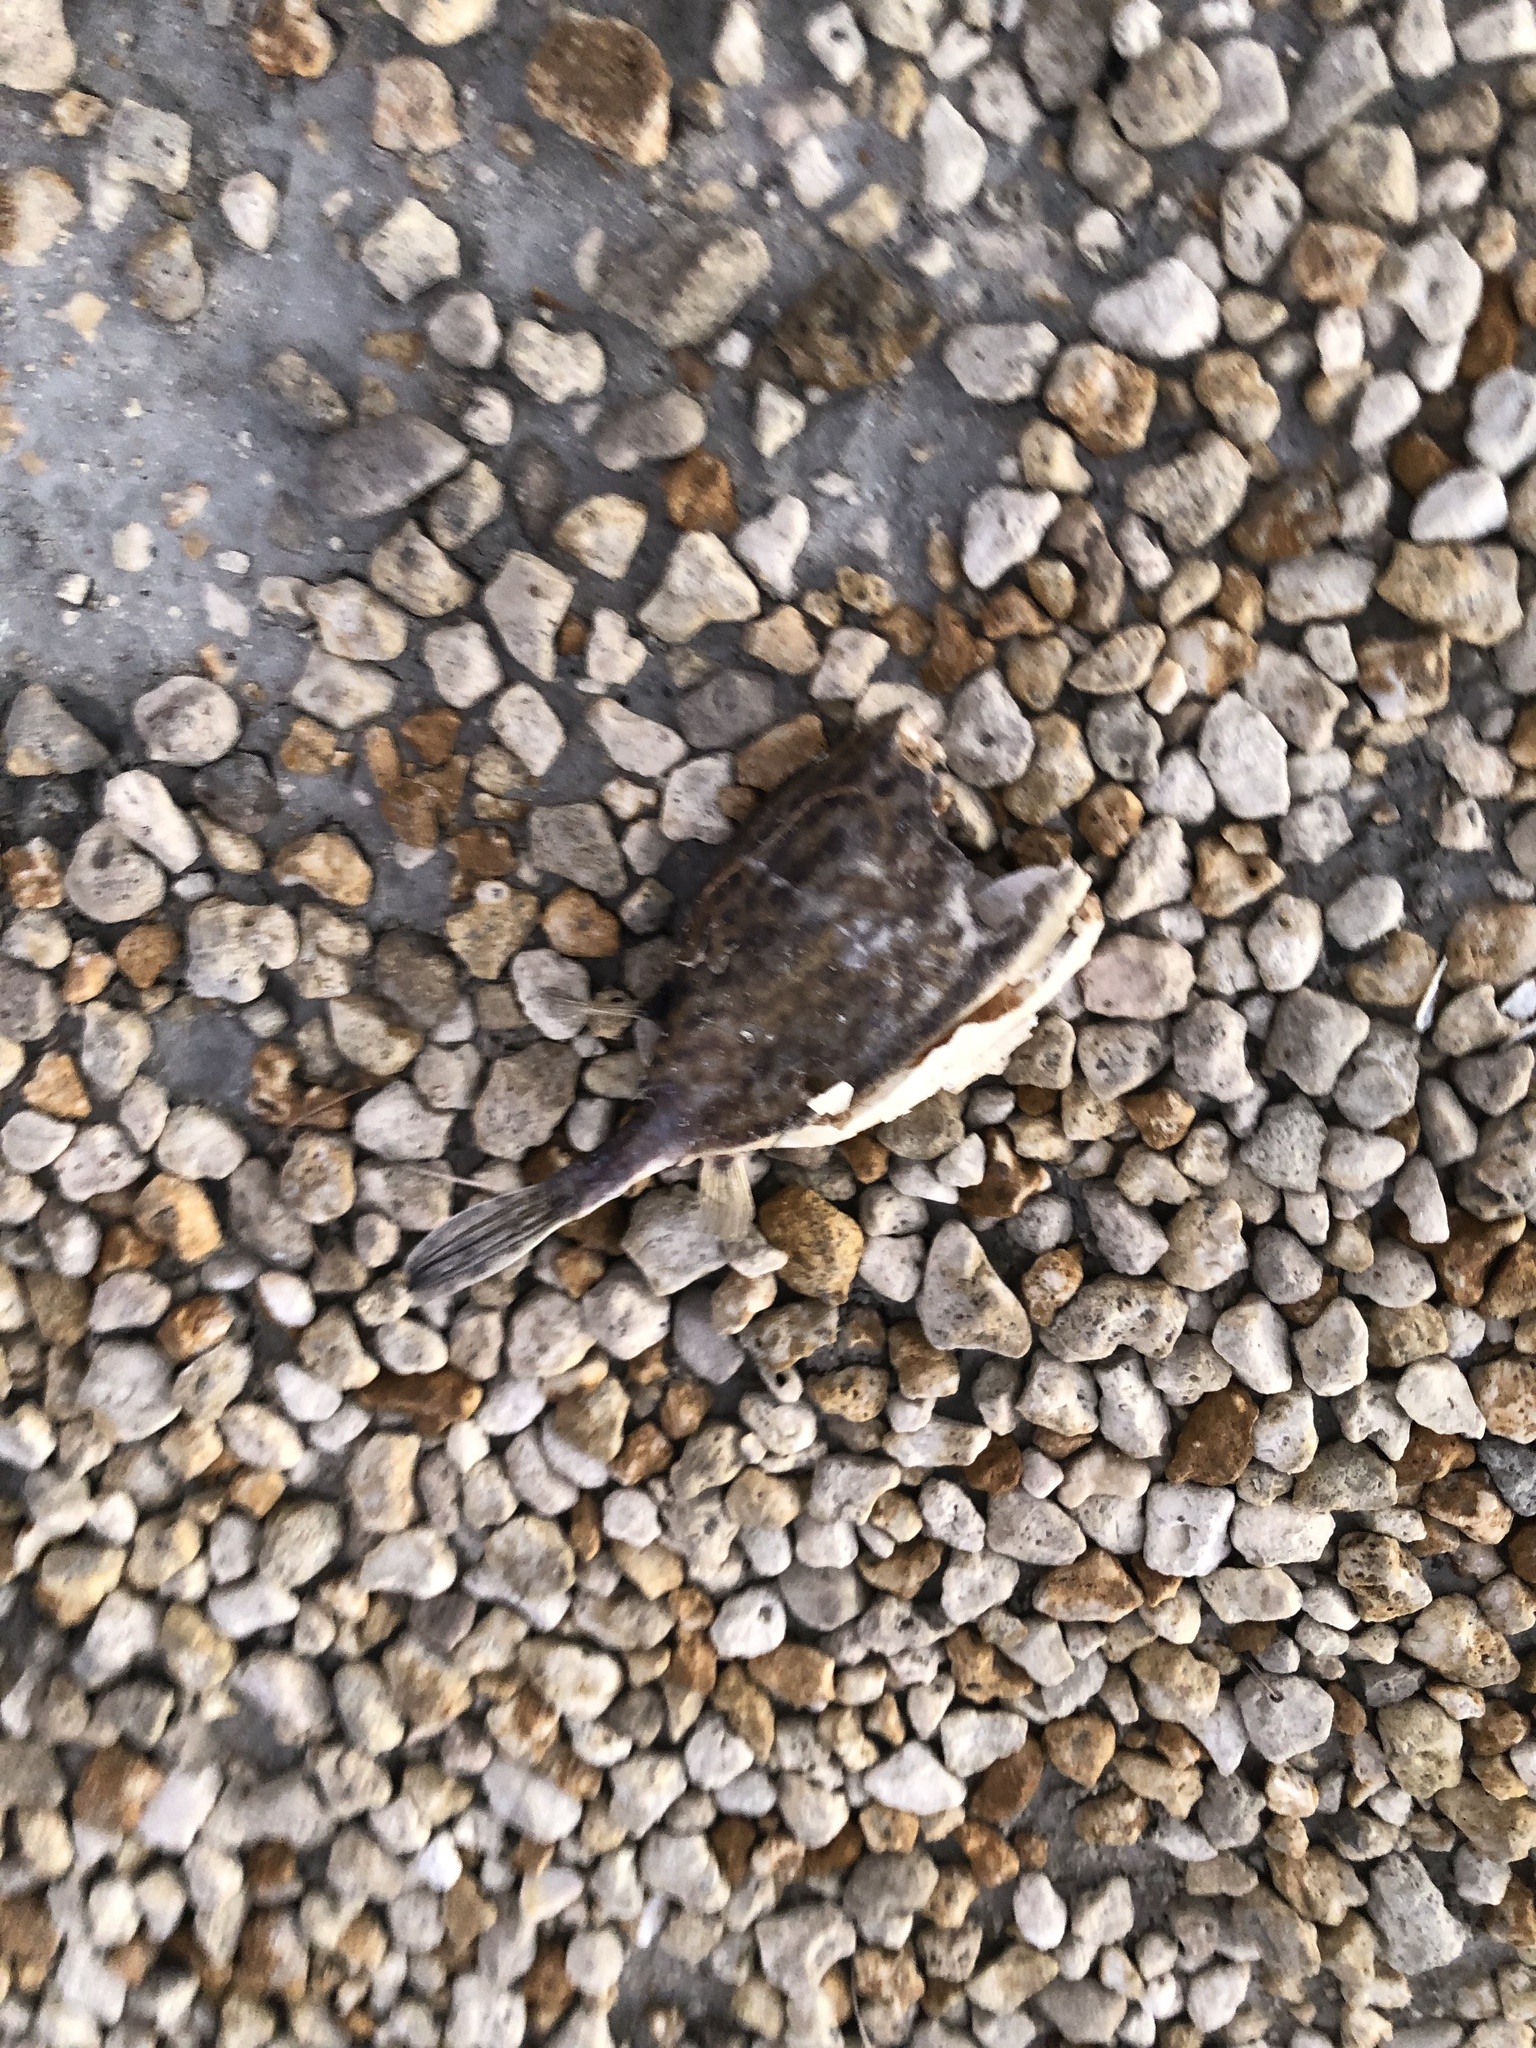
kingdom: Animalia
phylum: Chordata
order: Tetraodontiformes
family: Ostraciidae
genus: Acanthostracion
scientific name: Acanthostracion quadricornis
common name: Scrawled cowfish
